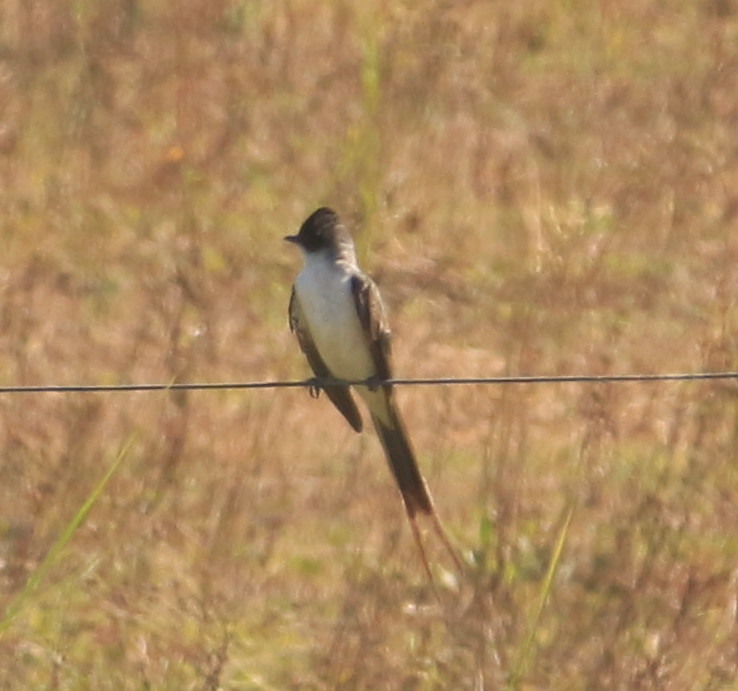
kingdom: Animalia
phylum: Chordata
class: Aves
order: Passeriformes
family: Tyrannidae
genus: Tyrannus
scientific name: Tyrannus savana
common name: Fork-tailed flycatcher
